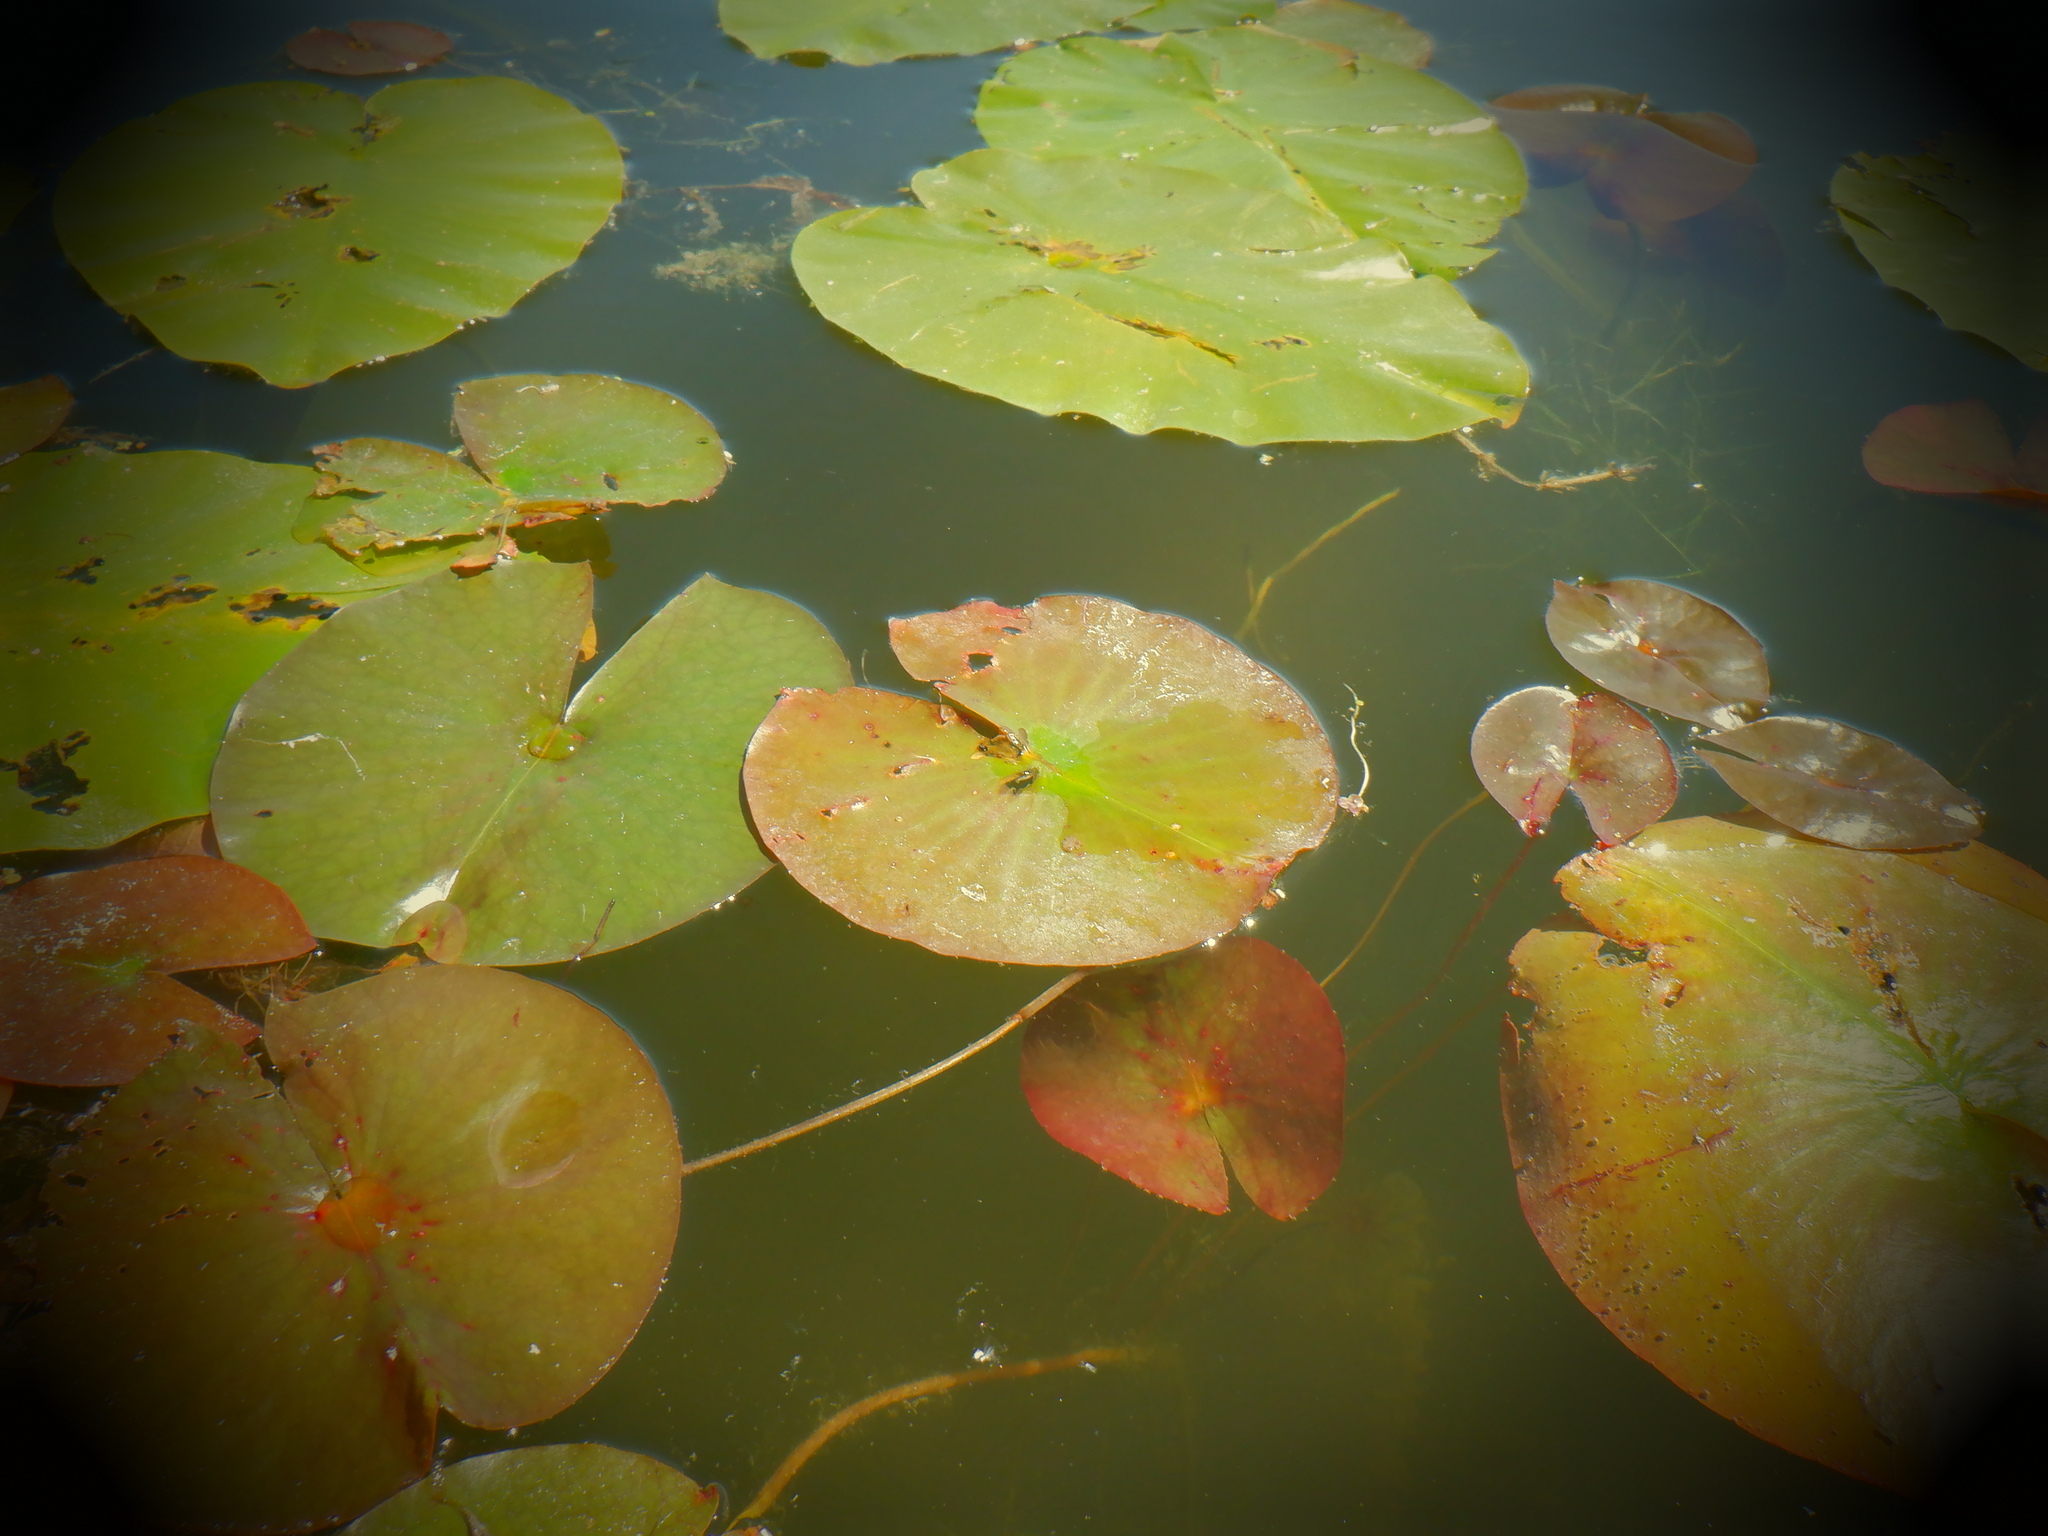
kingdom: Plantae
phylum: Tracheophyta
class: Magnoliopsida
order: Nymphaeales
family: Nymphaeaceae
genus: Nymphaea
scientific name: Nymphaea odorata
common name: Fragrant water-lily
